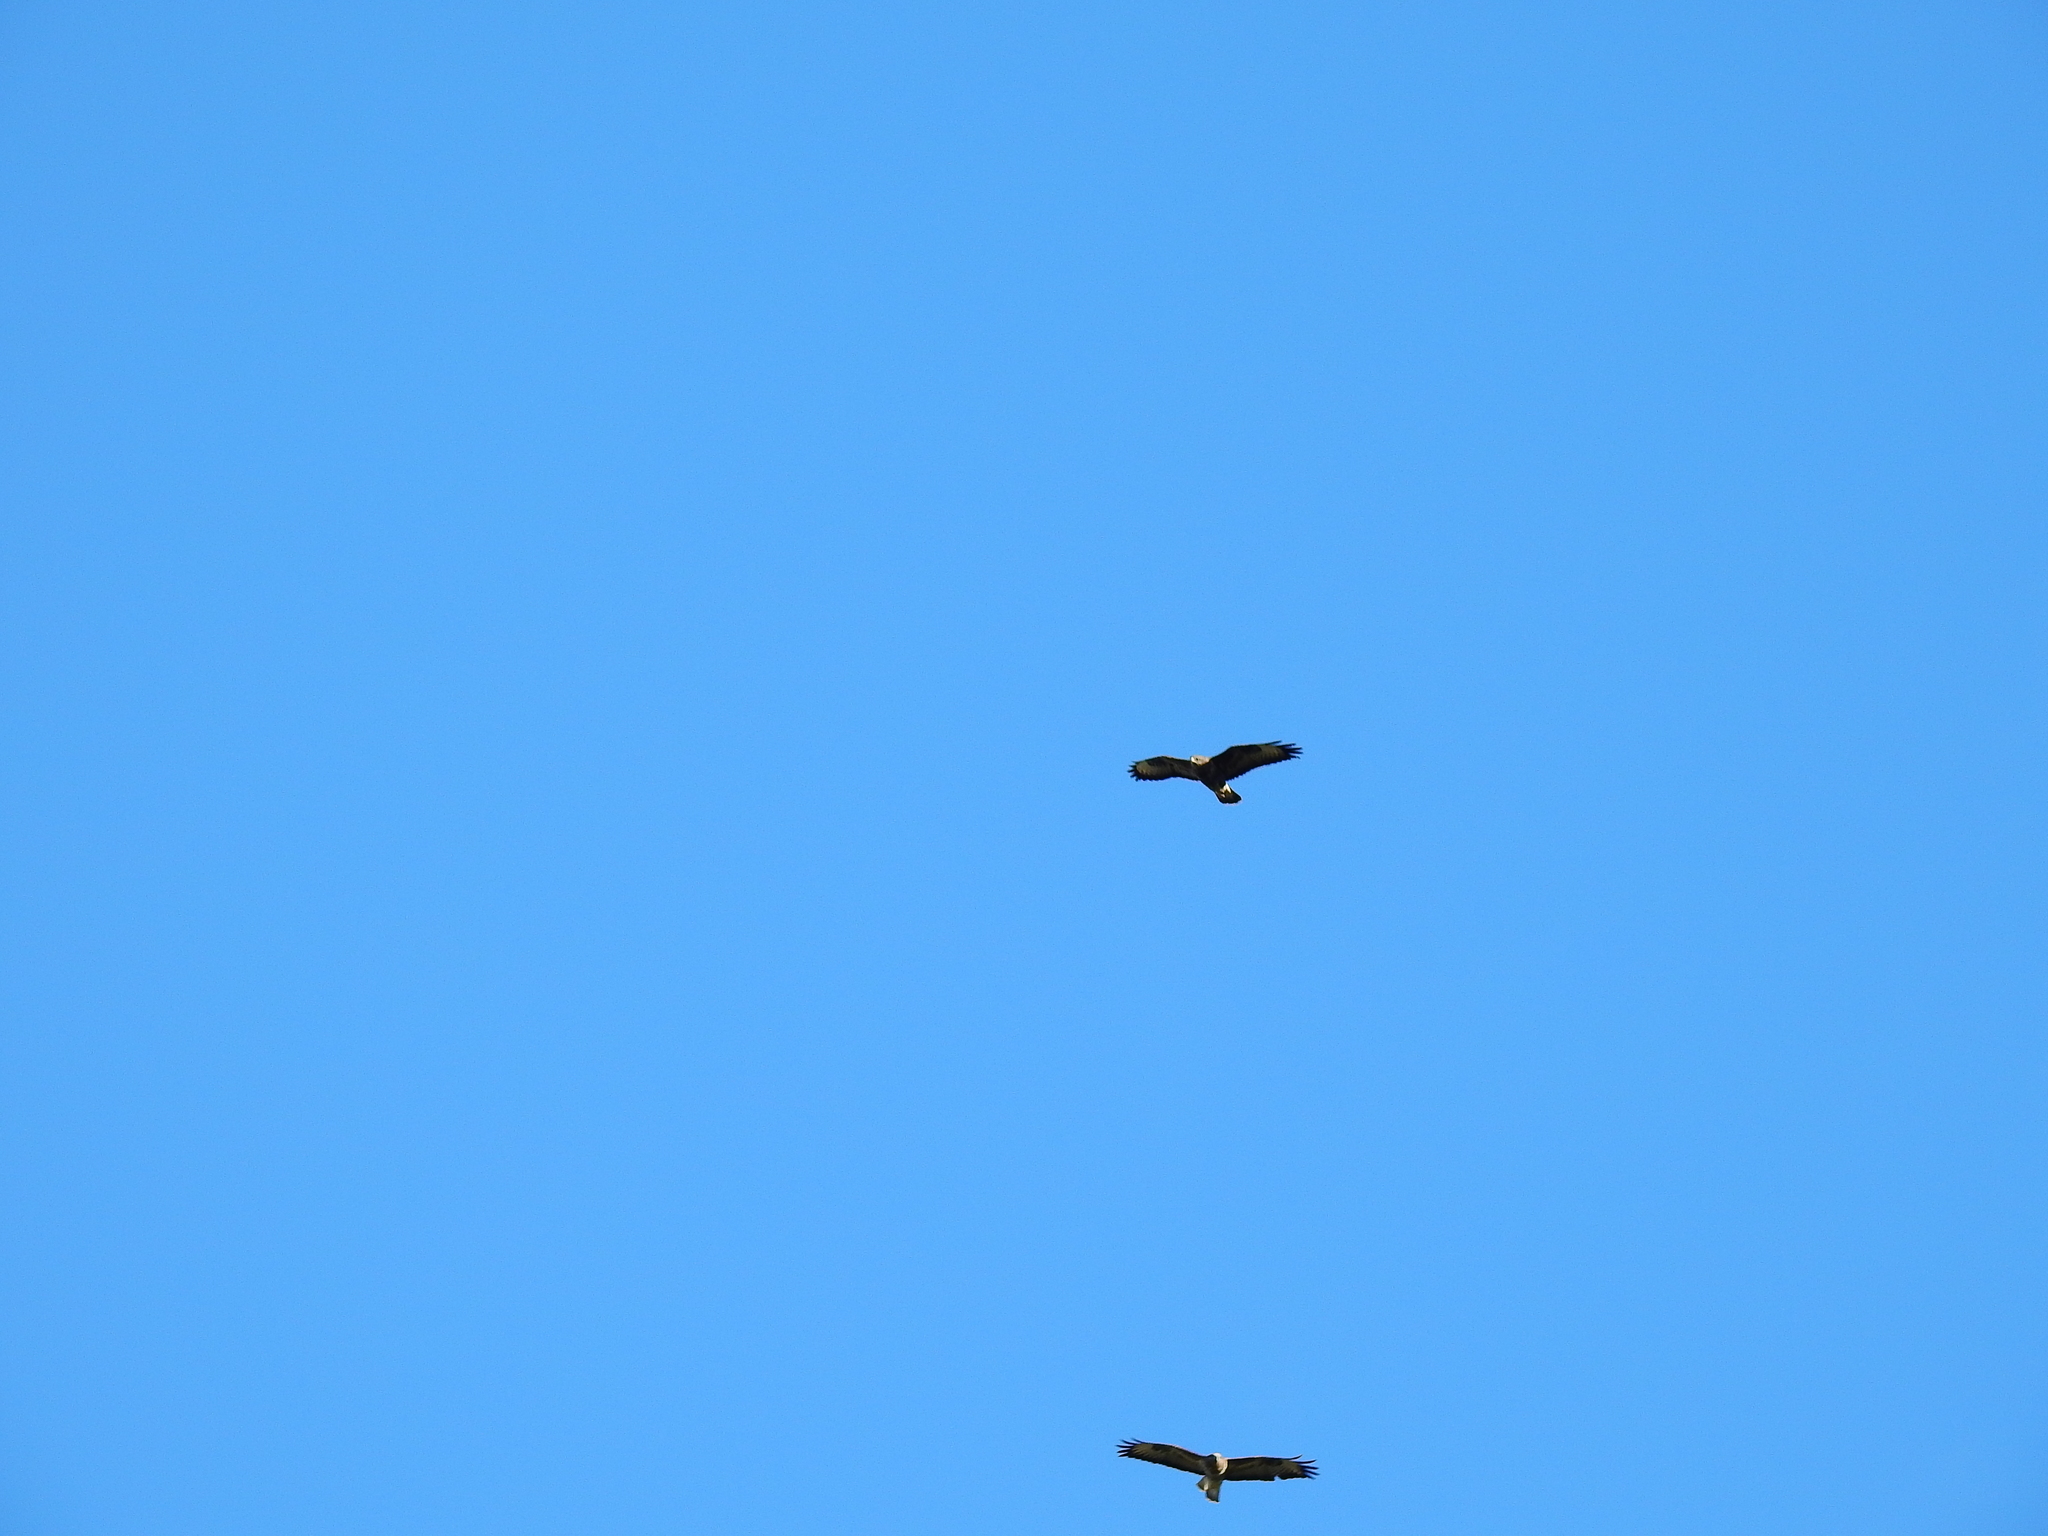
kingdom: Animalia
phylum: Chordata
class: Aves
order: Accipitriformes
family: Accipitridae
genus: Buteo
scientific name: Buteo buteo
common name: Common buzzard
